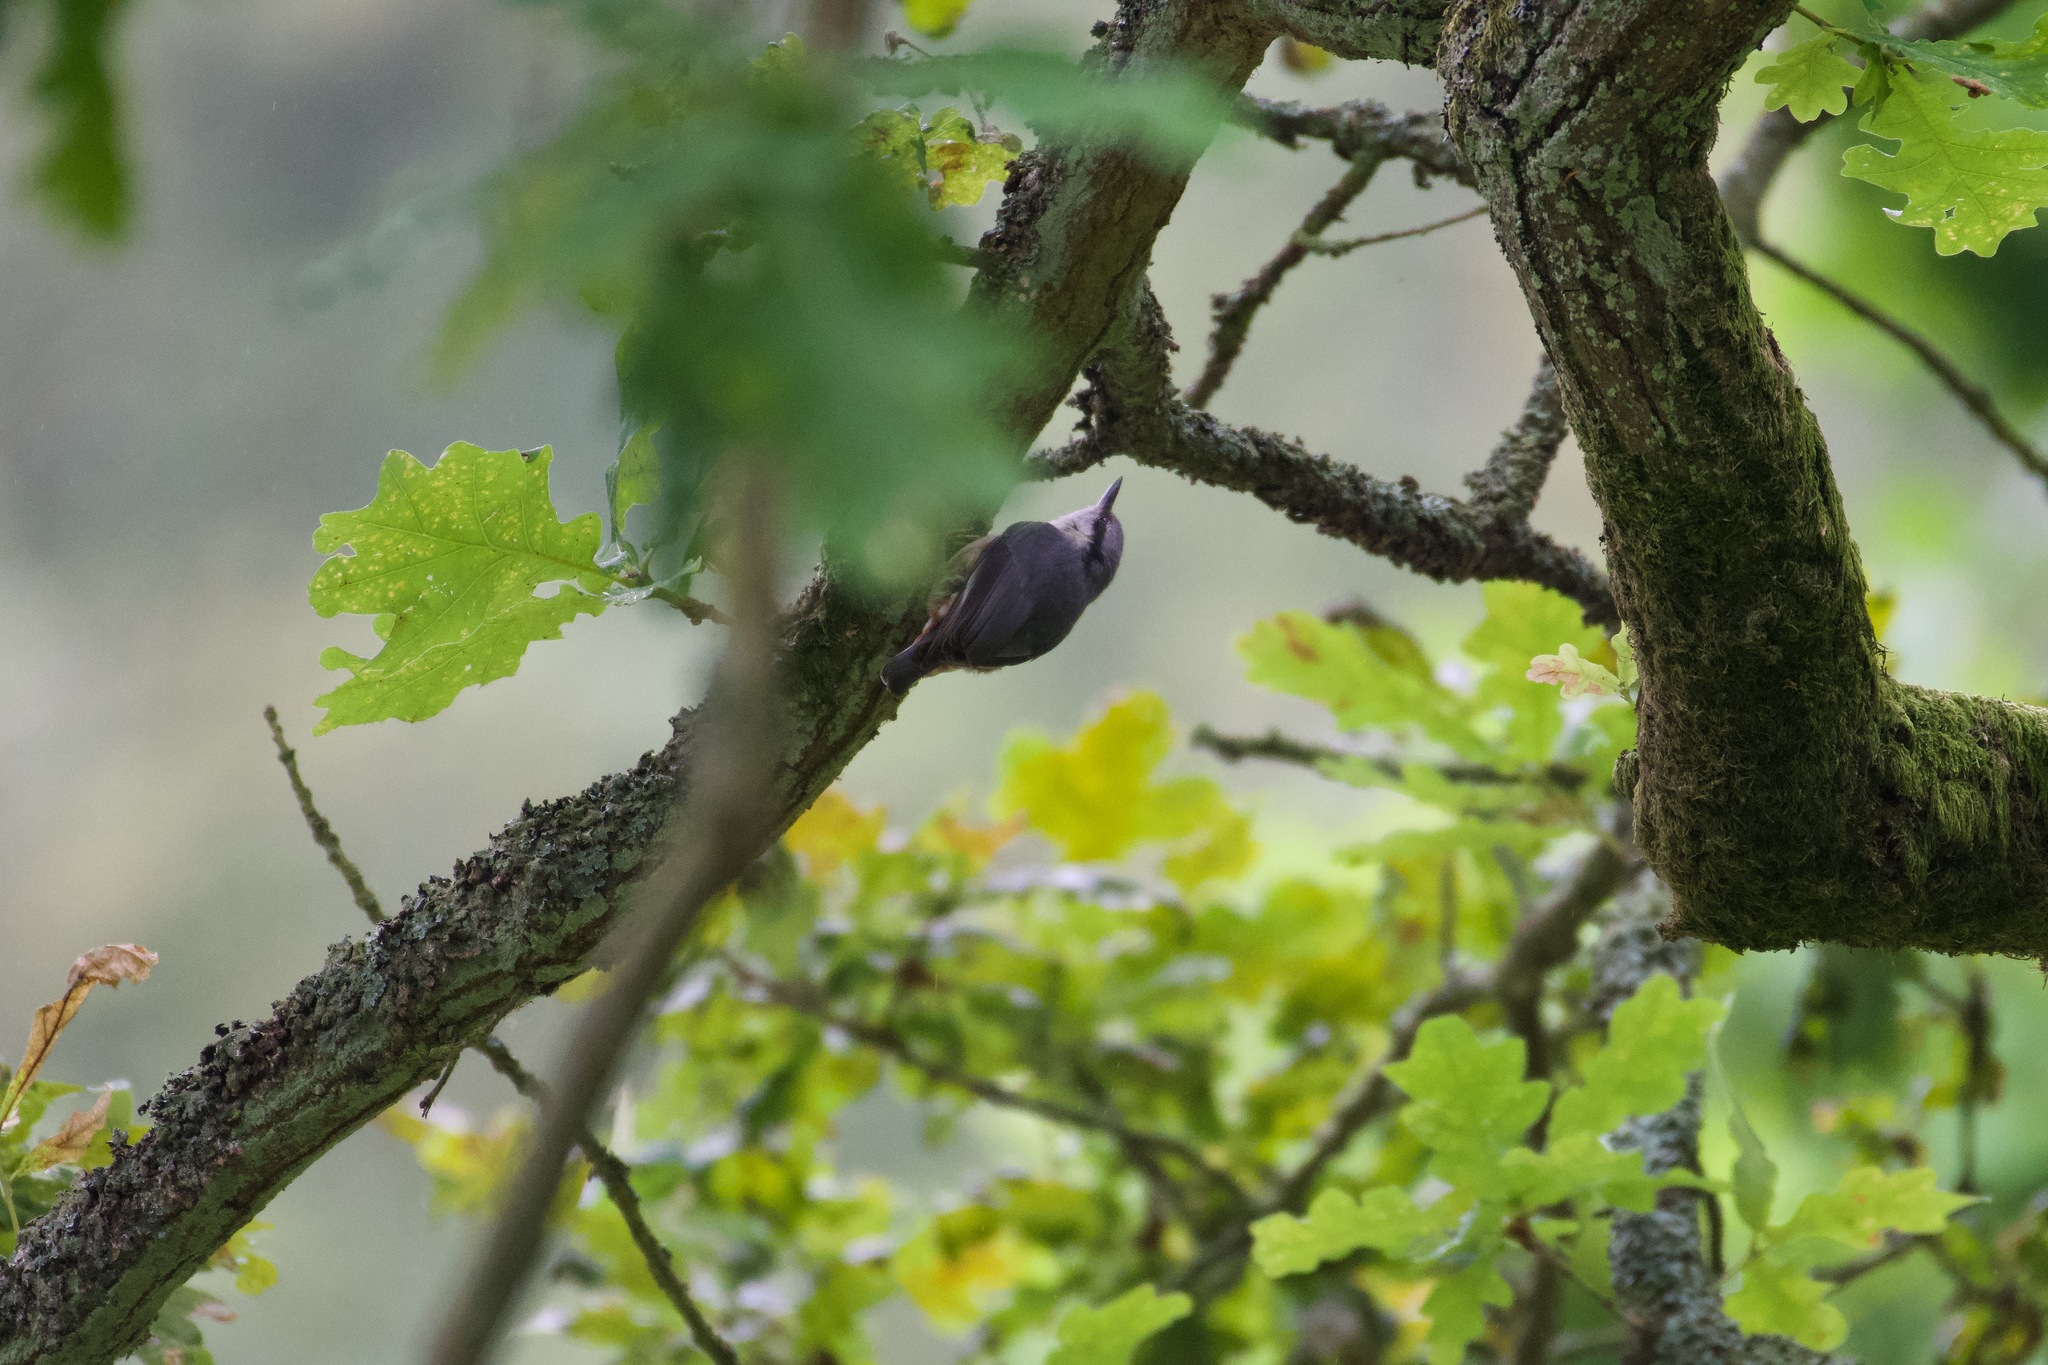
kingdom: Animalia
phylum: Chordata
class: Aves
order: Passeriformes
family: Sittidae
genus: Sitta
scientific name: Sitta europaea
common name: Eurasian nuthatch
